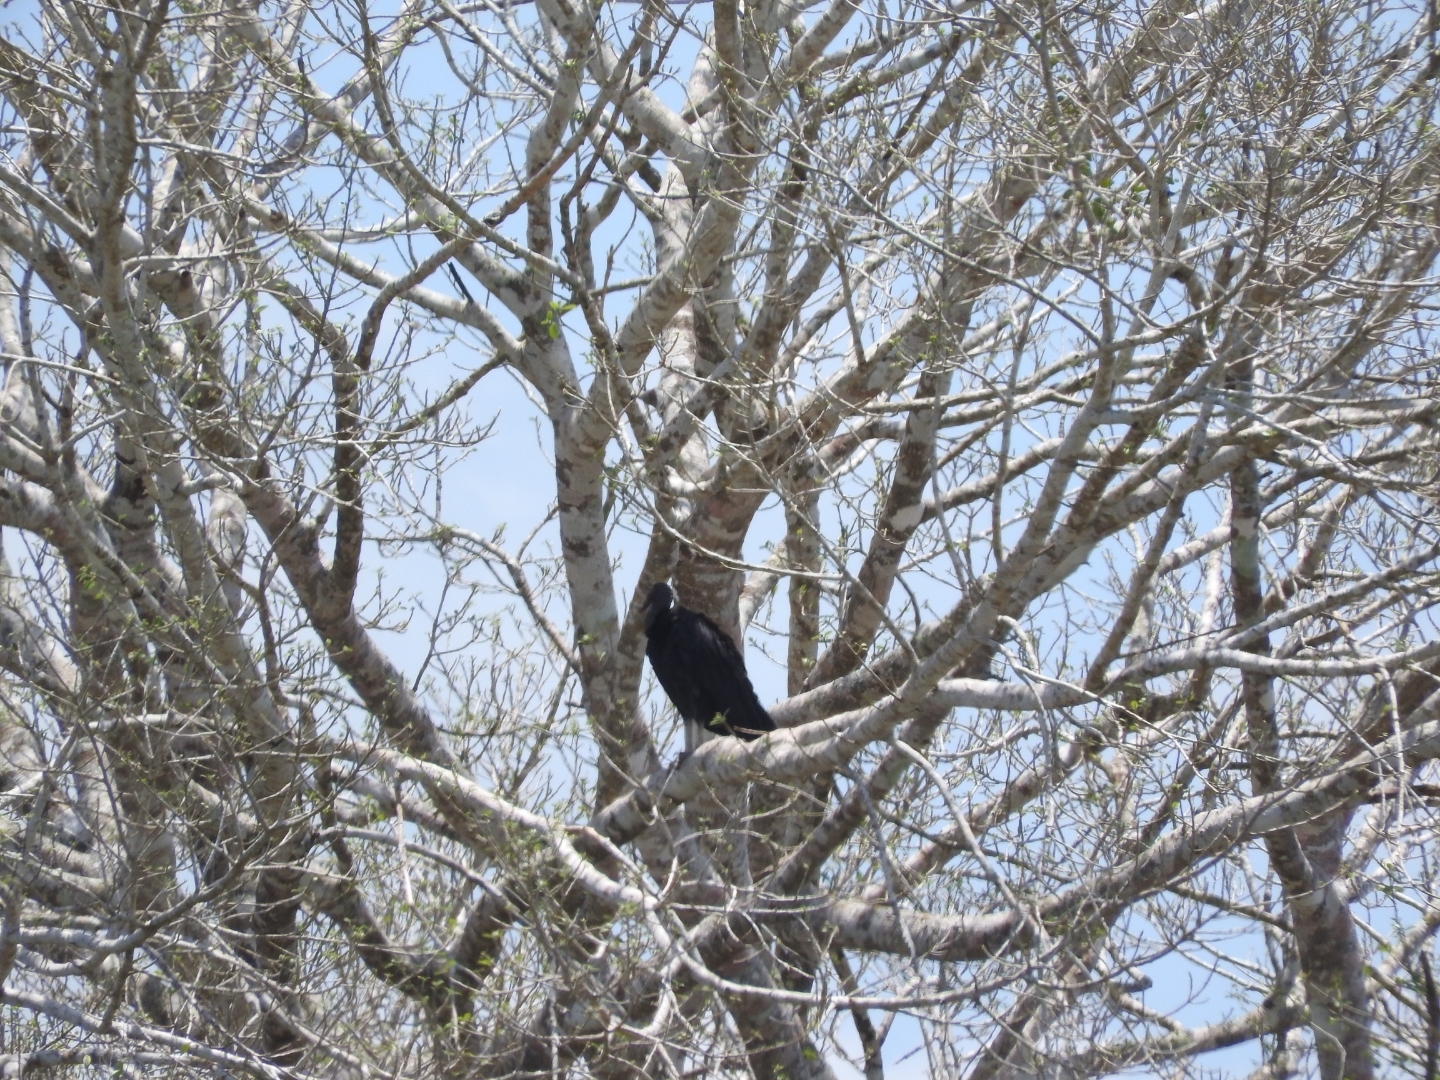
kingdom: Animalia
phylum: Chordata
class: Aves
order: Accipitriformes
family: Cathartidae
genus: Coragyps
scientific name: Coragyps atratus
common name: Black vulture
